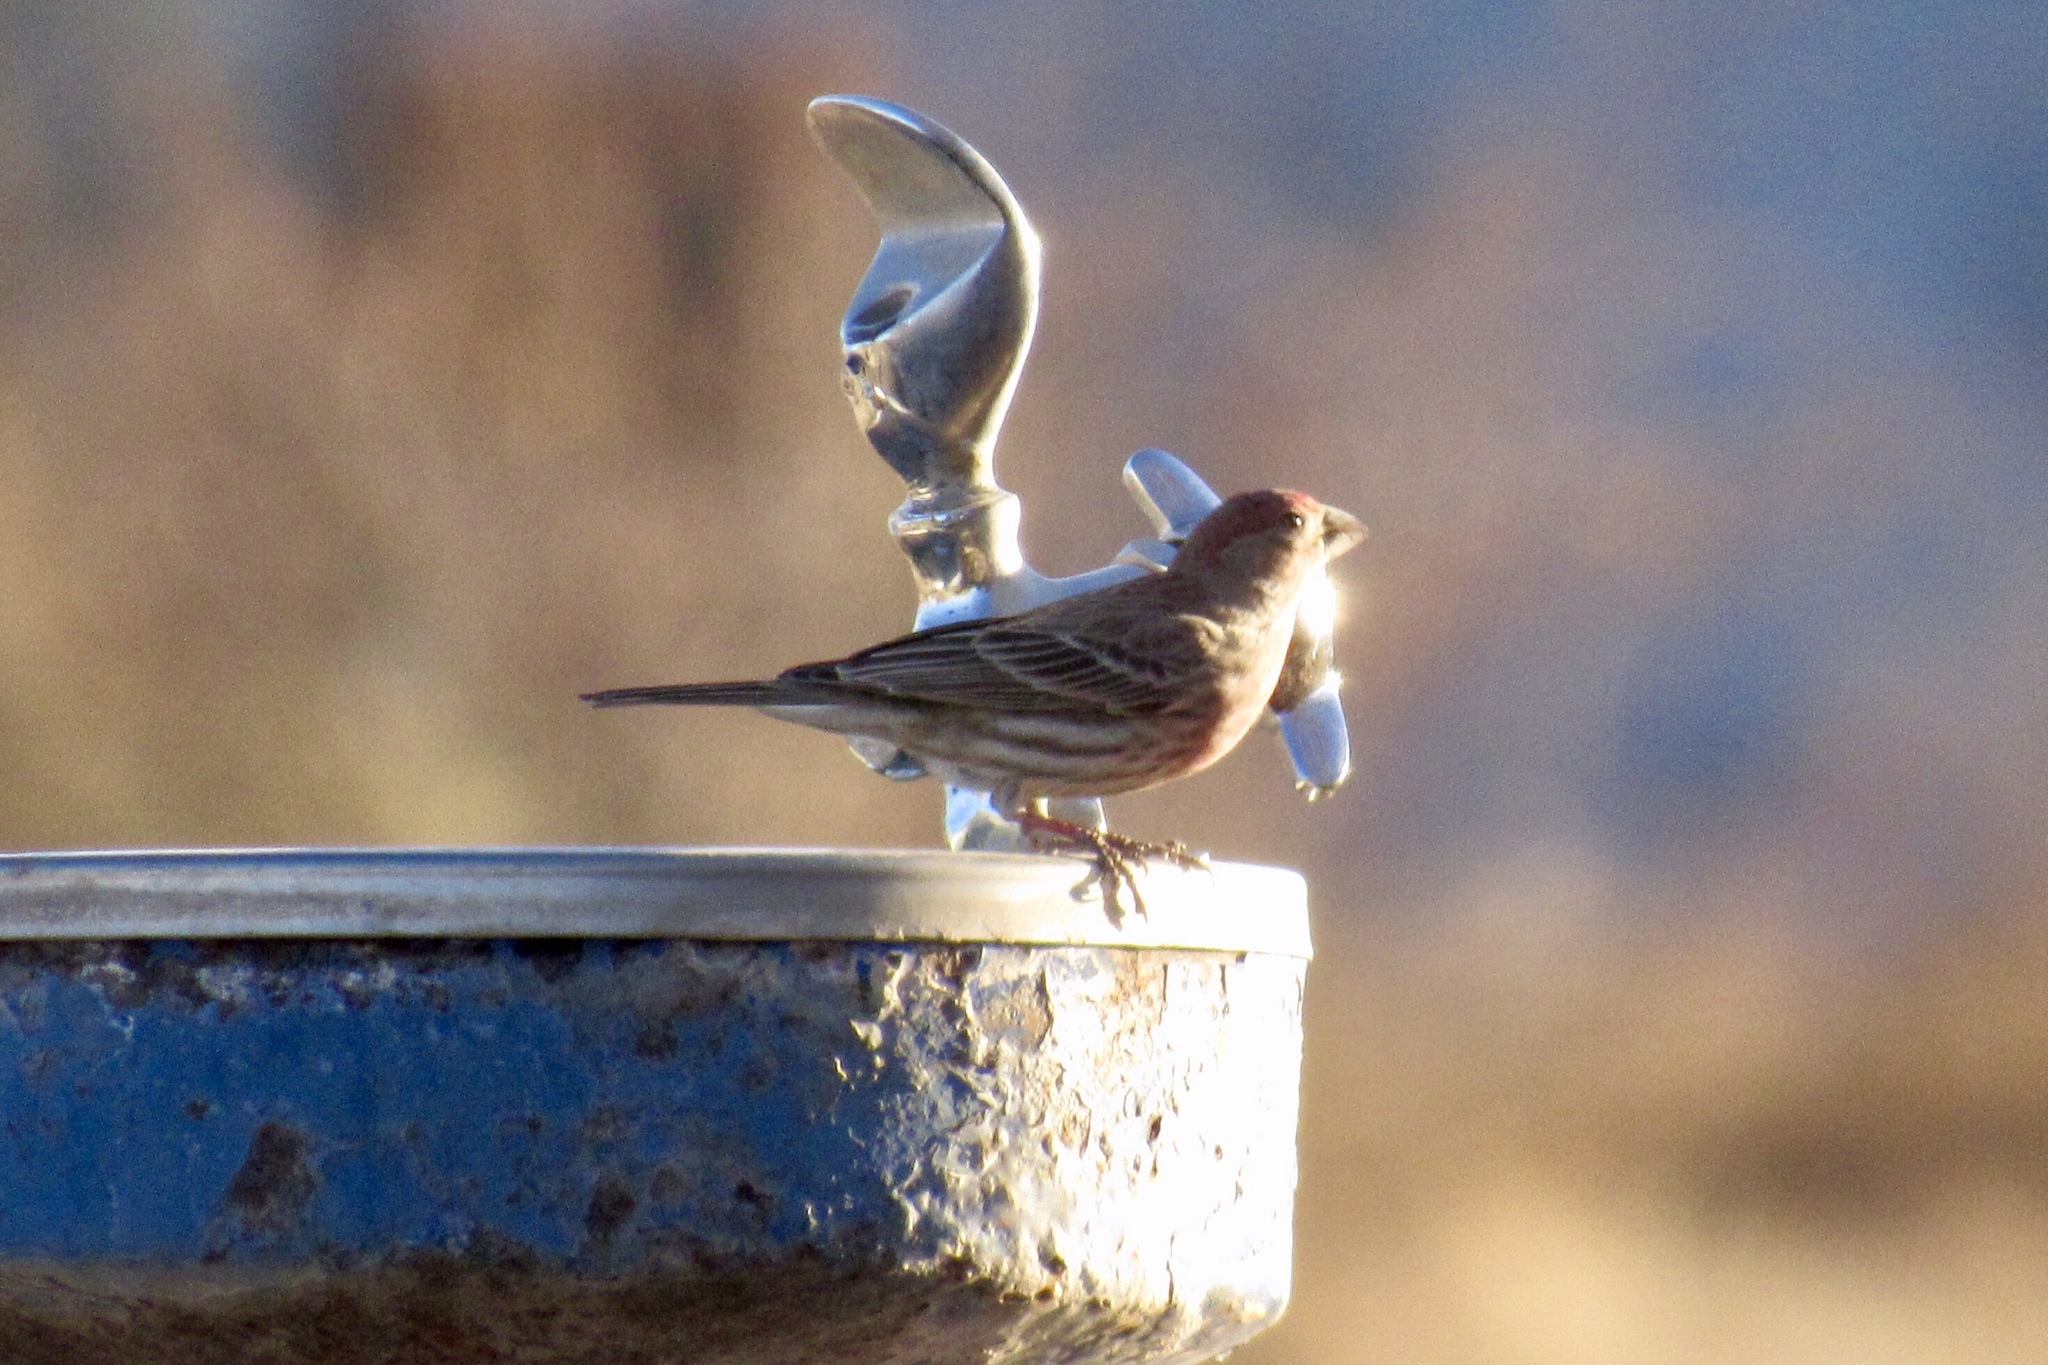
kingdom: Animalia
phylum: Chordata
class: Aves
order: Passeriformes
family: Fringillidae
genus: Haemorhous
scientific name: Haemorhous mexicanus
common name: House finch
